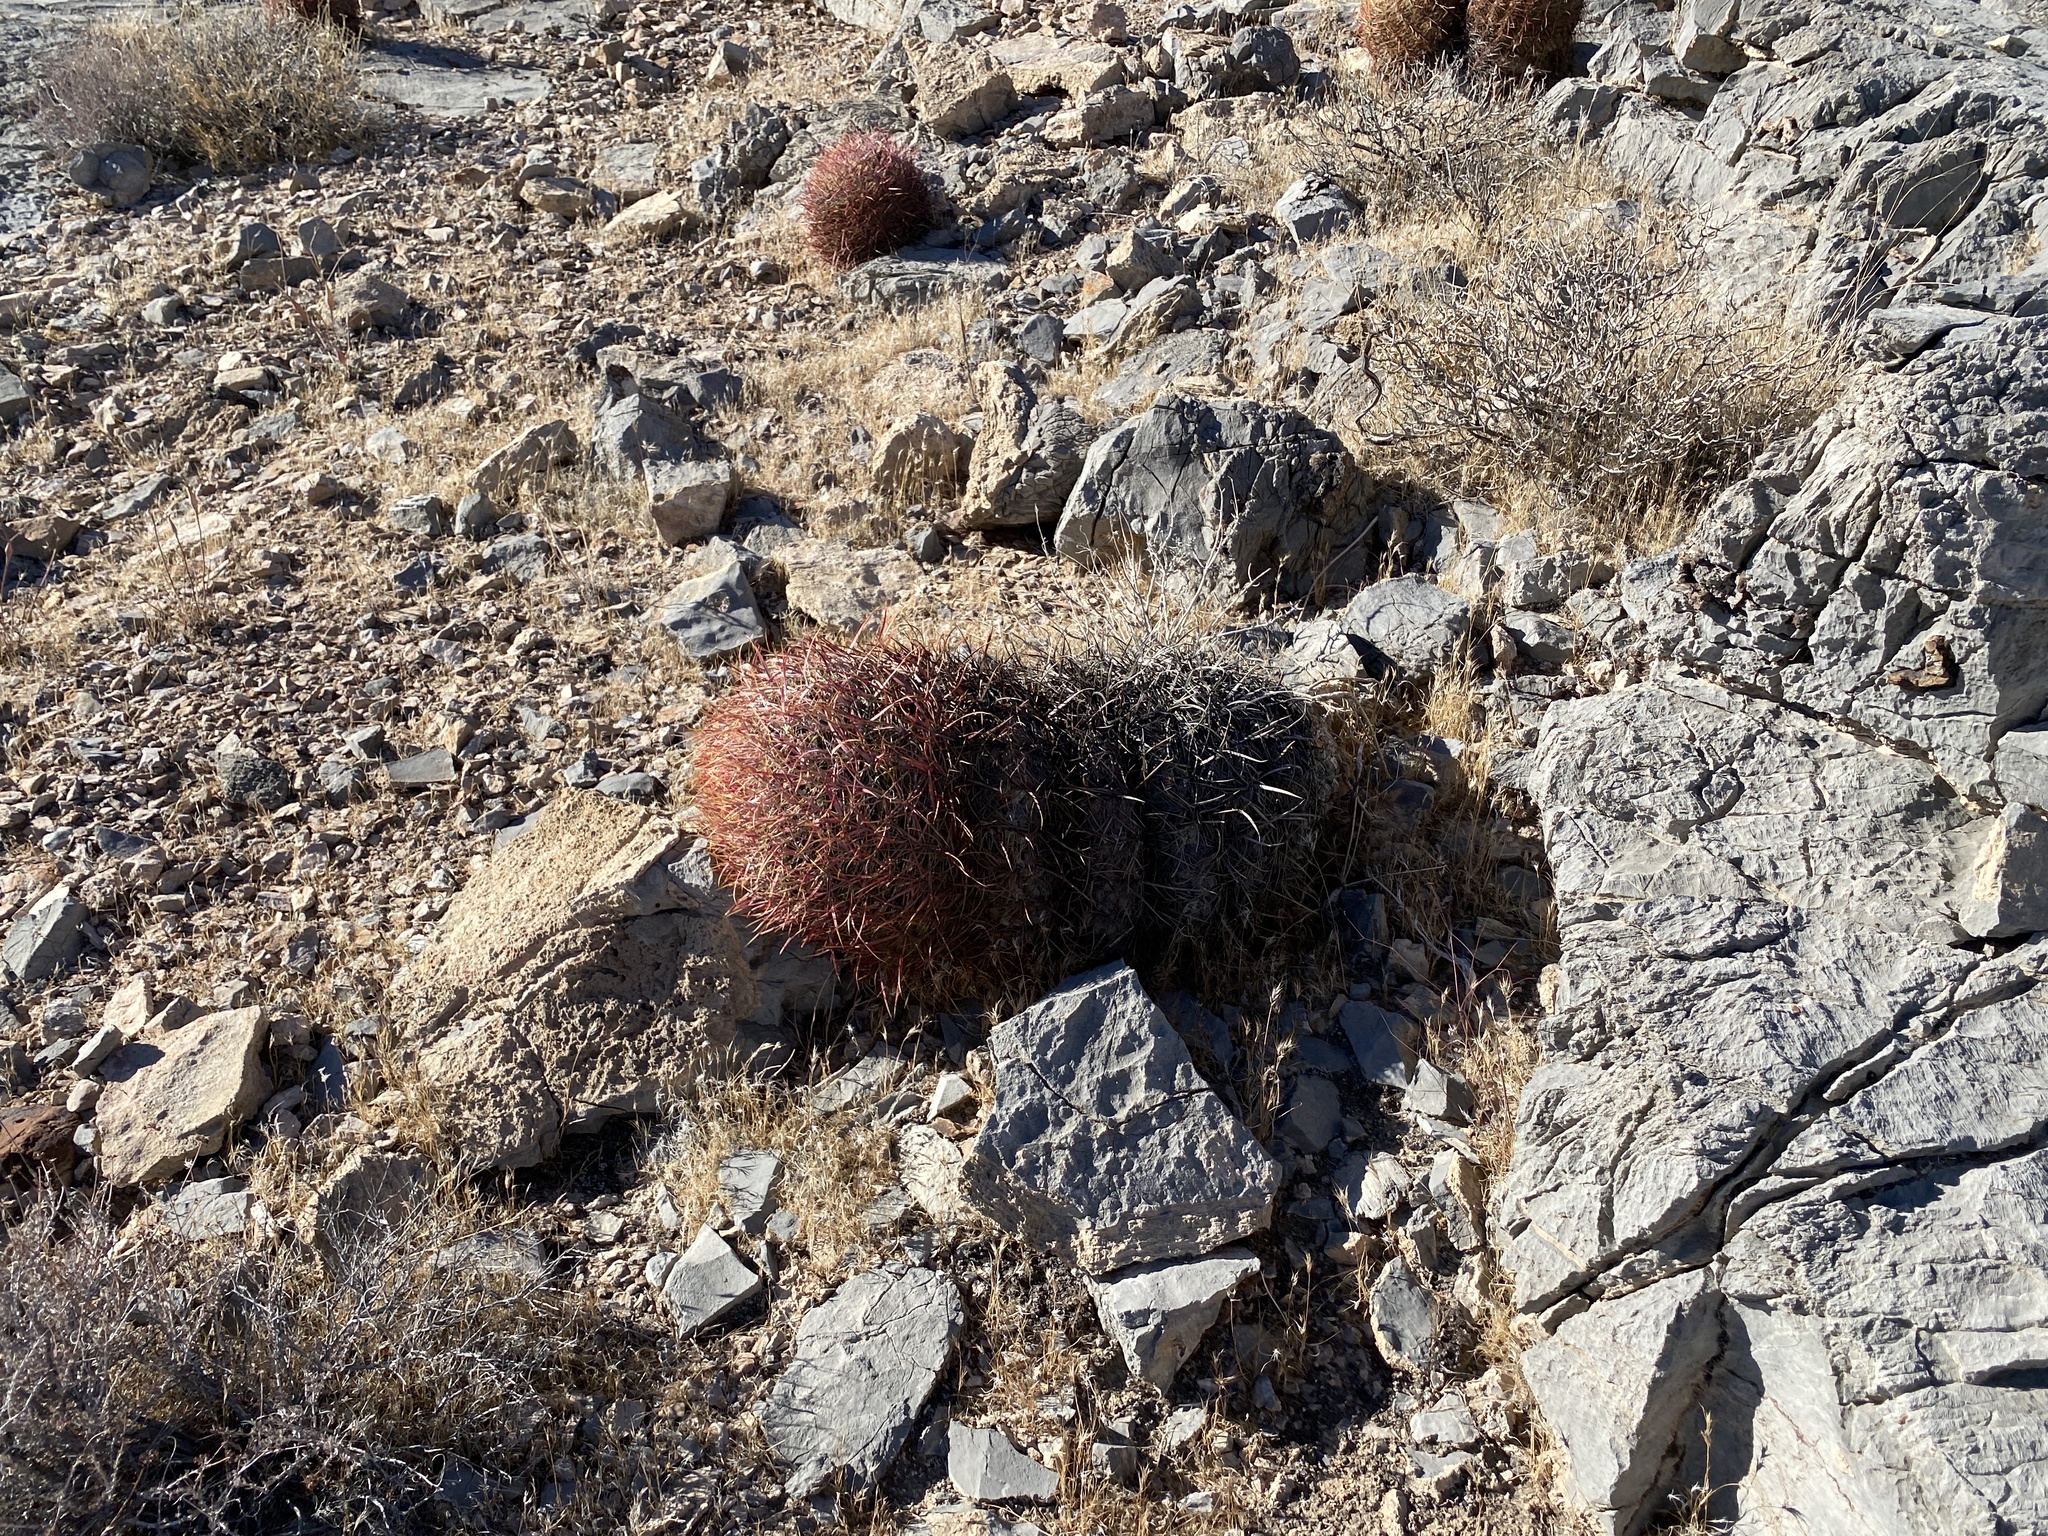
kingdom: Plantae
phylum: Tracheophyta
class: Magnoliopsida
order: Caryophyllales
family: Cactaceae
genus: Ferocactus
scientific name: Ferocactus cylindraceus
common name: California barrel cactus
